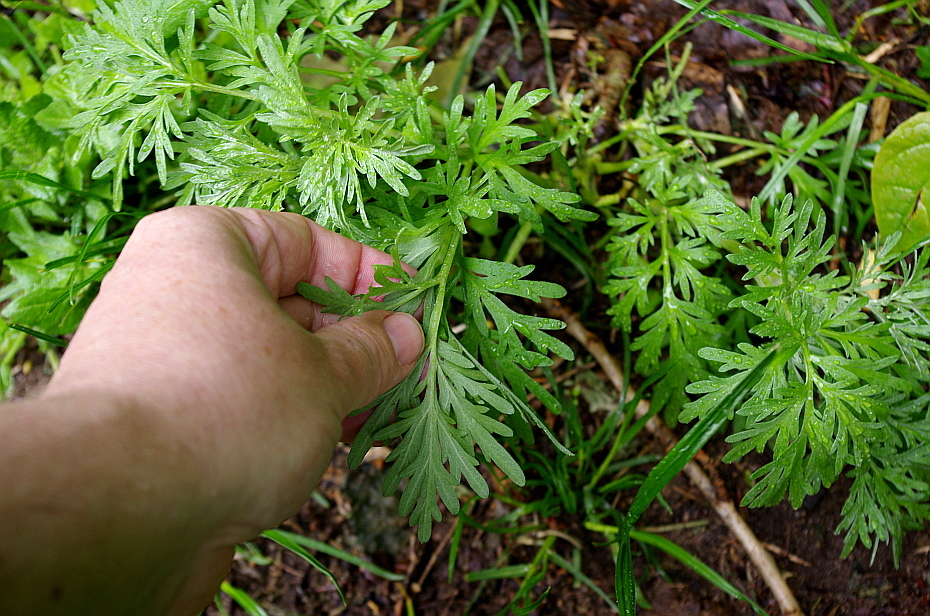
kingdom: Plantae
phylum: Tracheophyta
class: Magnoliopsida
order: Asterales
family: Asteraceae
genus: Artemisia
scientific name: Artemisia absinthium
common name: Wormwood
